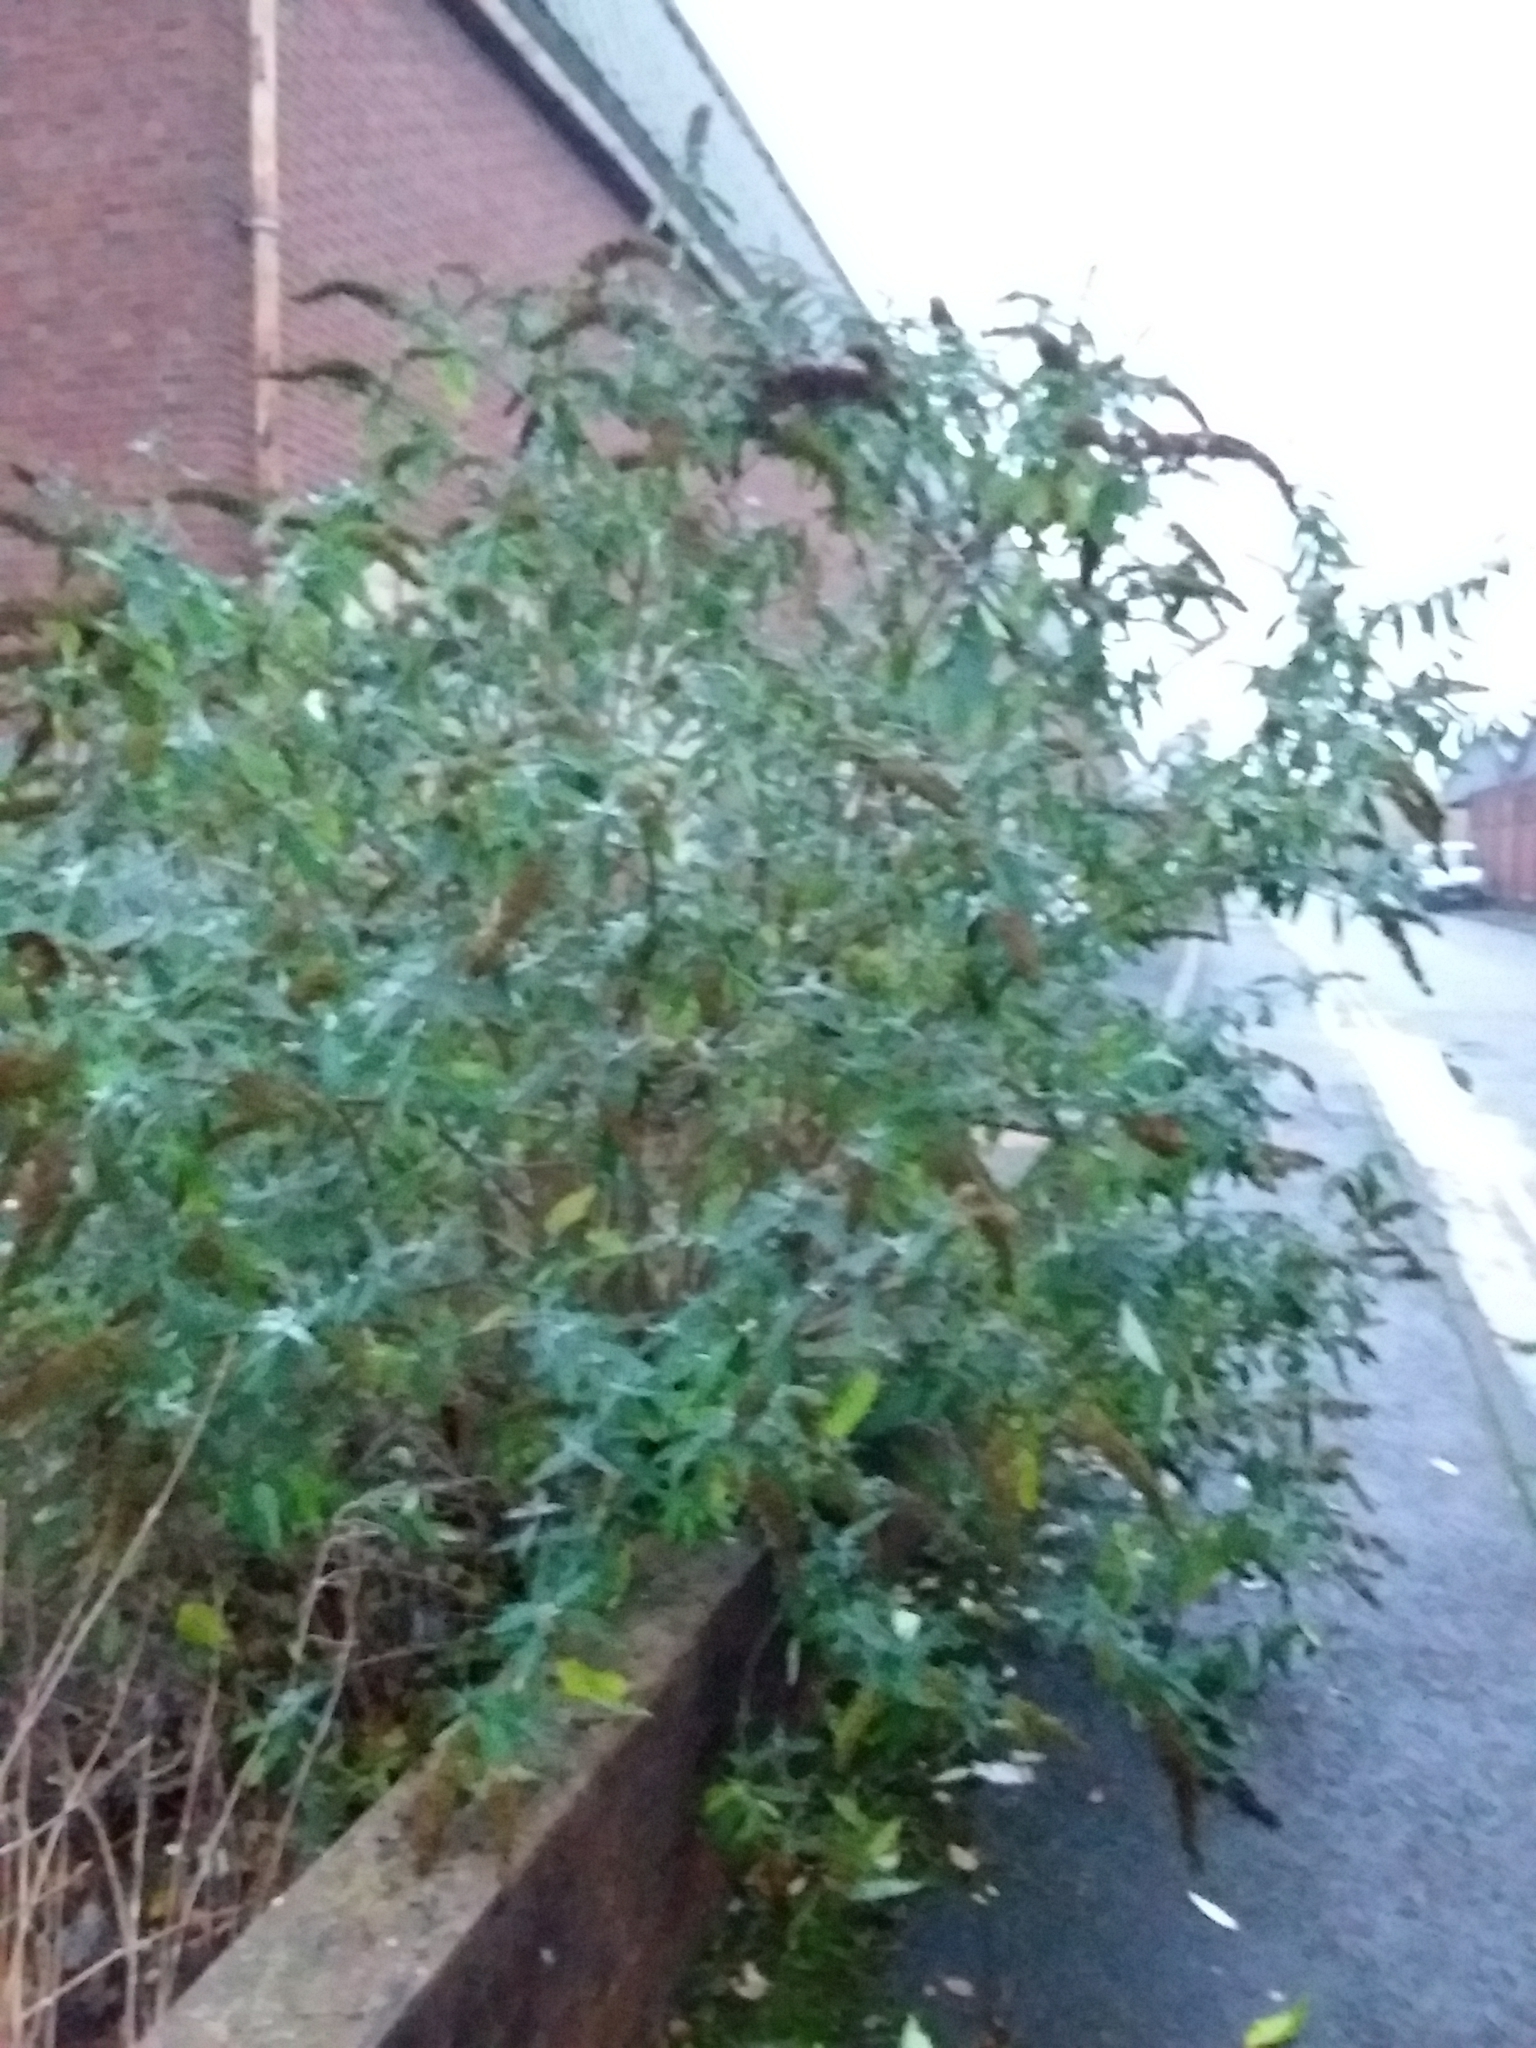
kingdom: Plantae
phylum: Tracheophyta
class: Magnoliopsida
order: Lamiales
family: Scrophulariaceae
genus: Buddleja
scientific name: Buddleja davidii
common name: Butterfly-bush
